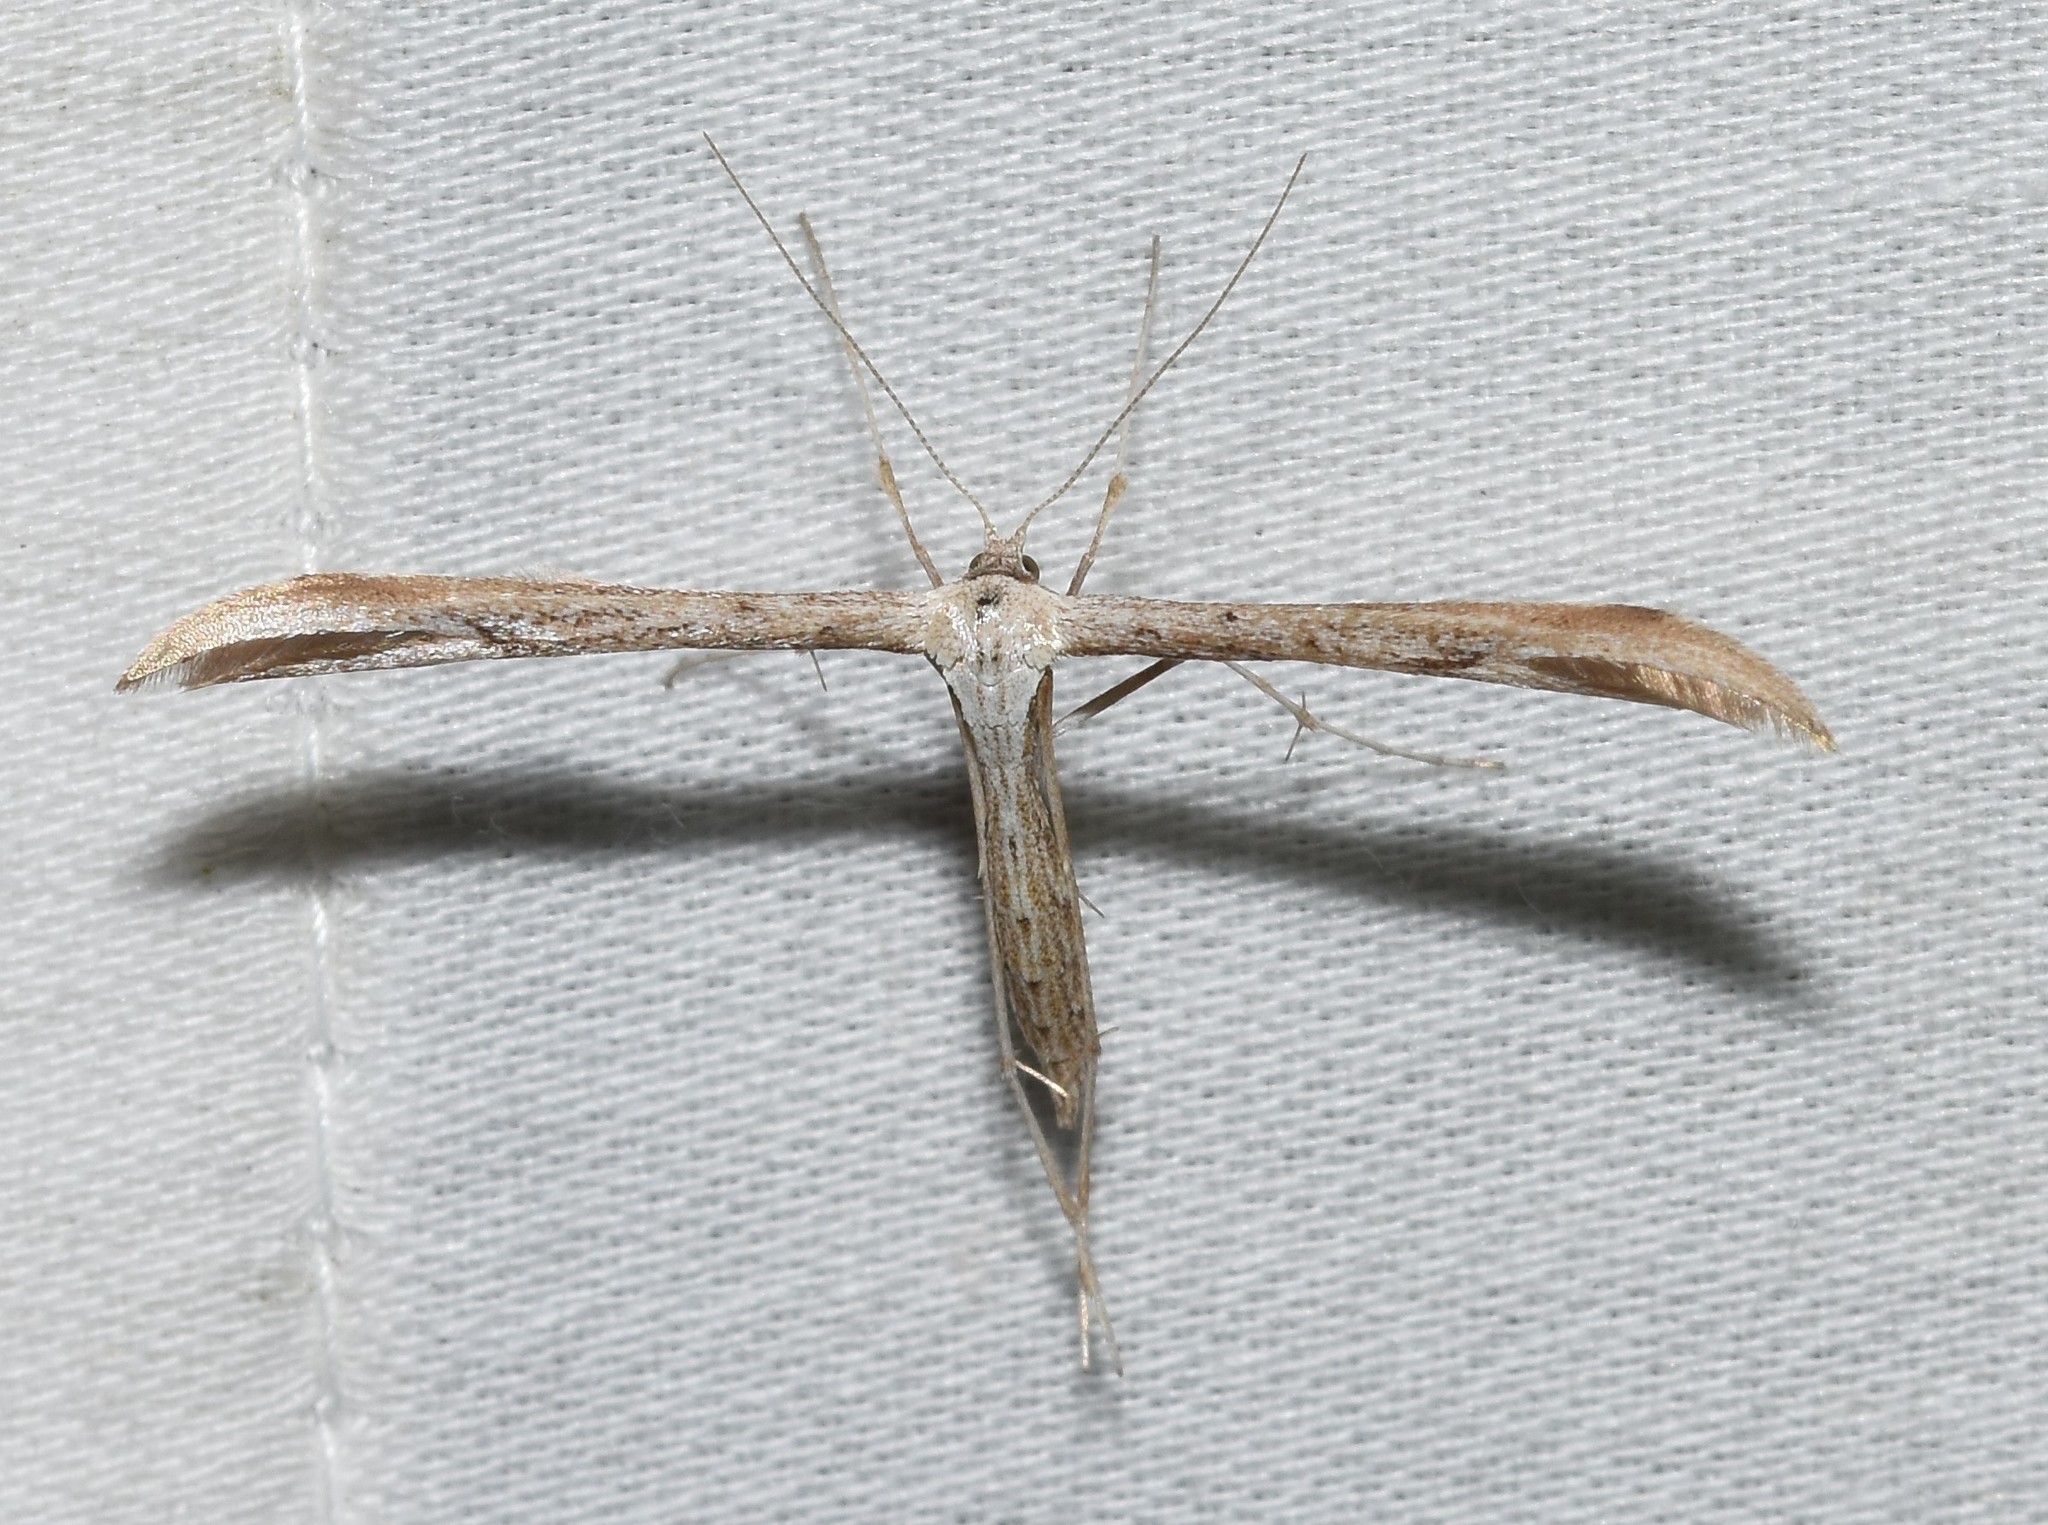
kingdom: Animalia
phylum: Arthropoda
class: Insecta
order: Lepidoptera
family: Pterophoridae
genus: Emmelina
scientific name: Emmelina monodactyla
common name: Common plume
